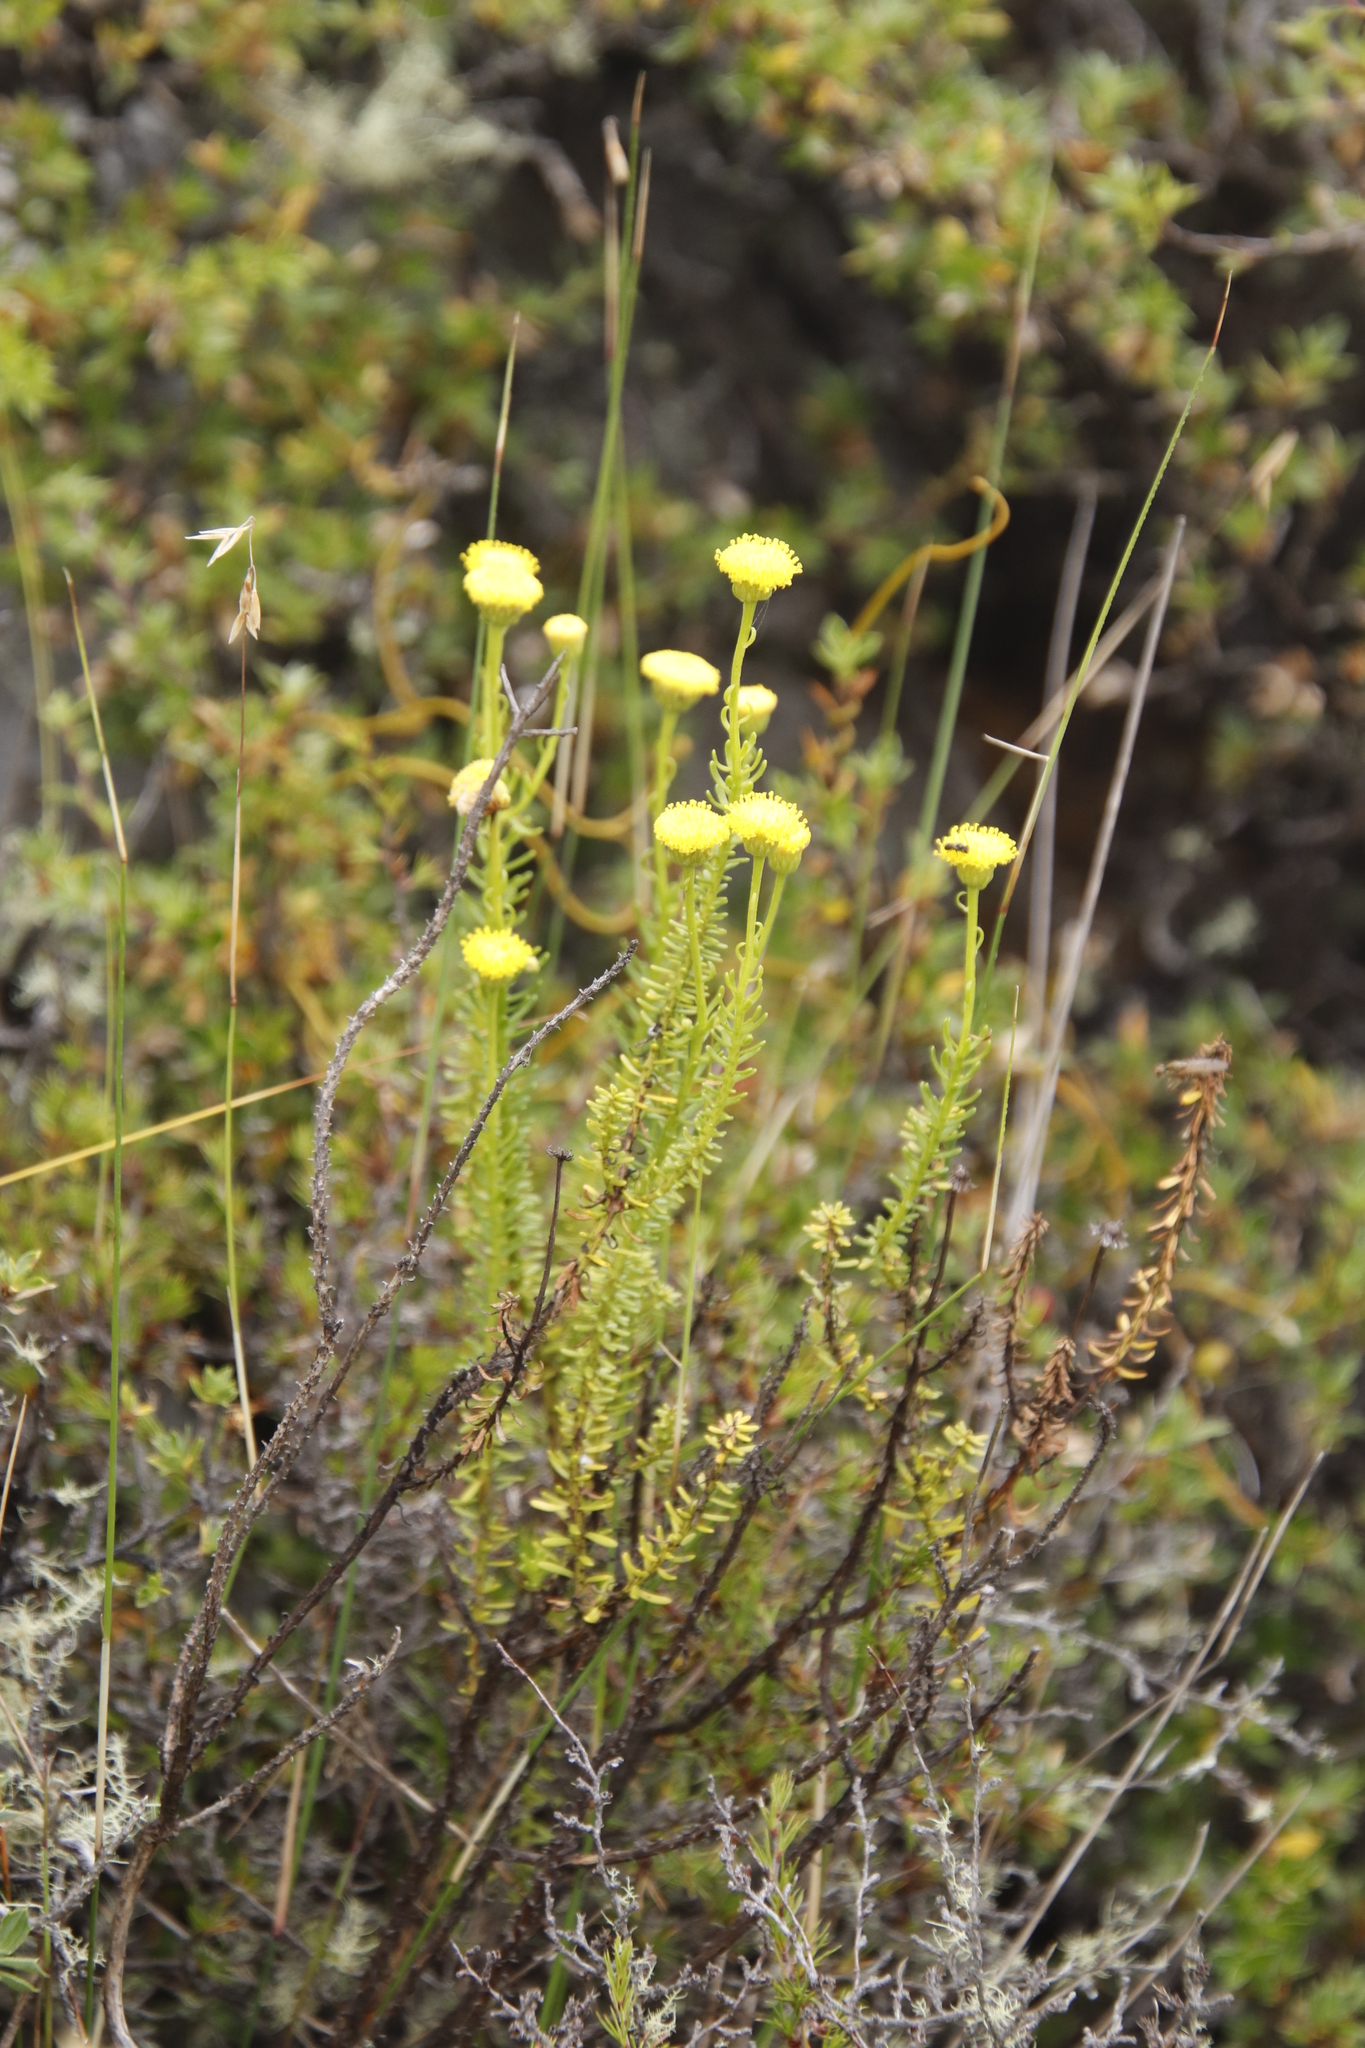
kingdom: Plantae
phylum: Tracheophyta
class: Magnoliopsida
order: Asterales
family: Asteraceae
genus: Chrysocoma
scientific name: Chrysocoma cernua
